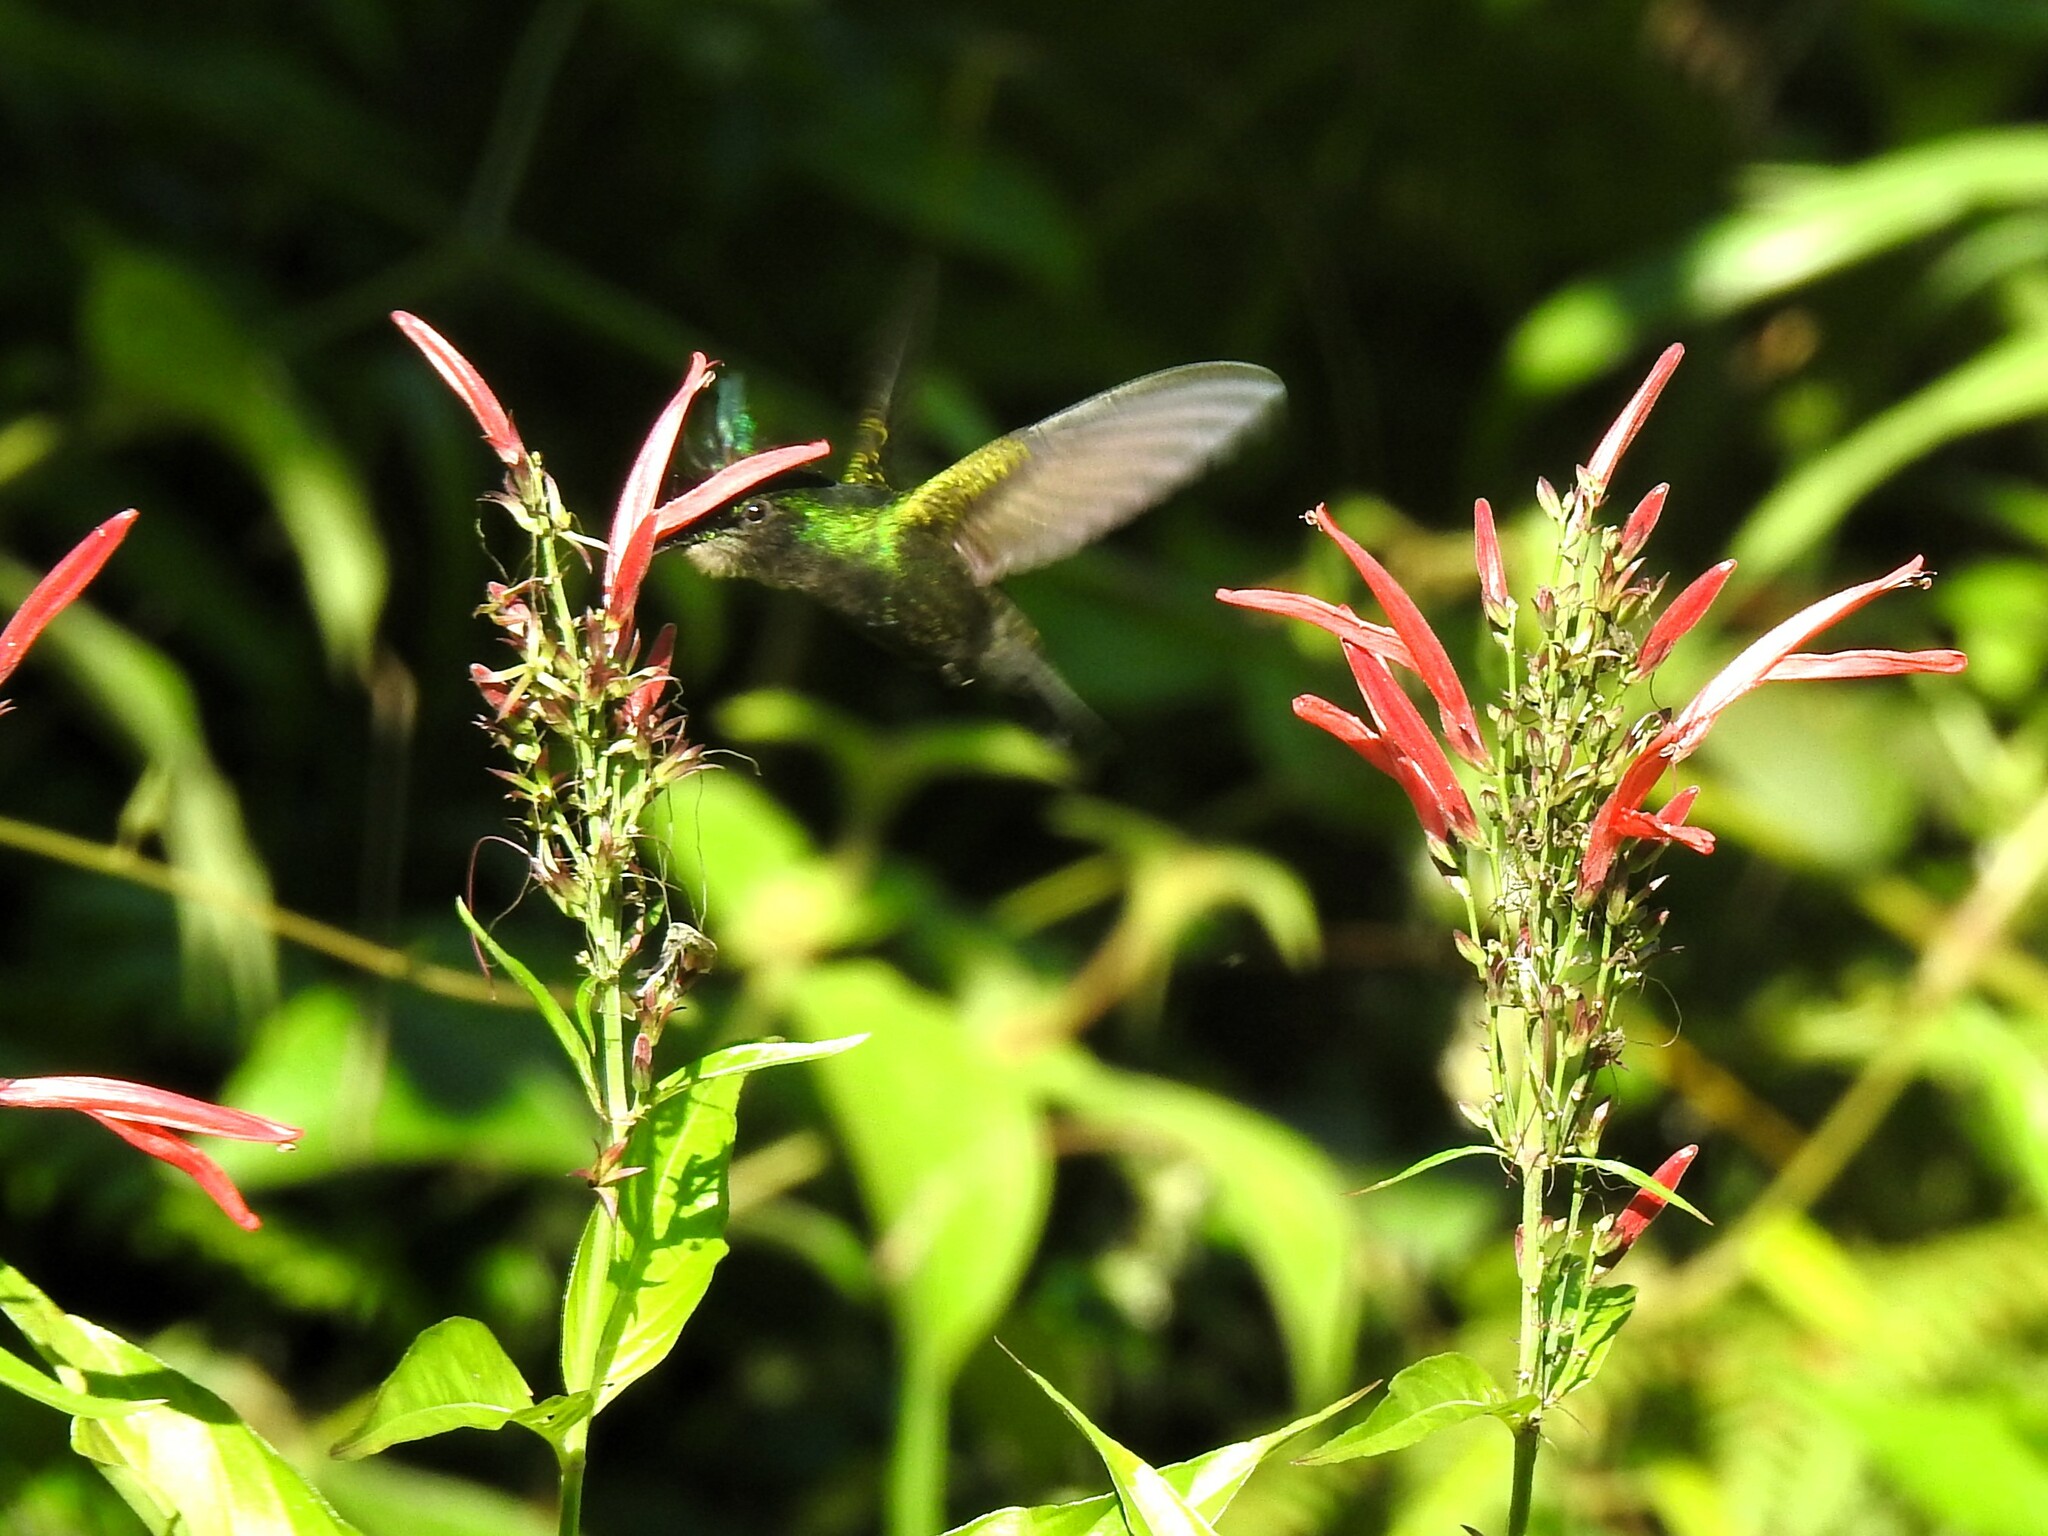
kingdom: Animalia
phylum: Chordata
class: Aves
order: Apodiformes
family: Trochilidae
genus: Orthorhyncus
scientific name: Orthorhyncus cristatus
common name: Antillean crested hummingbird
